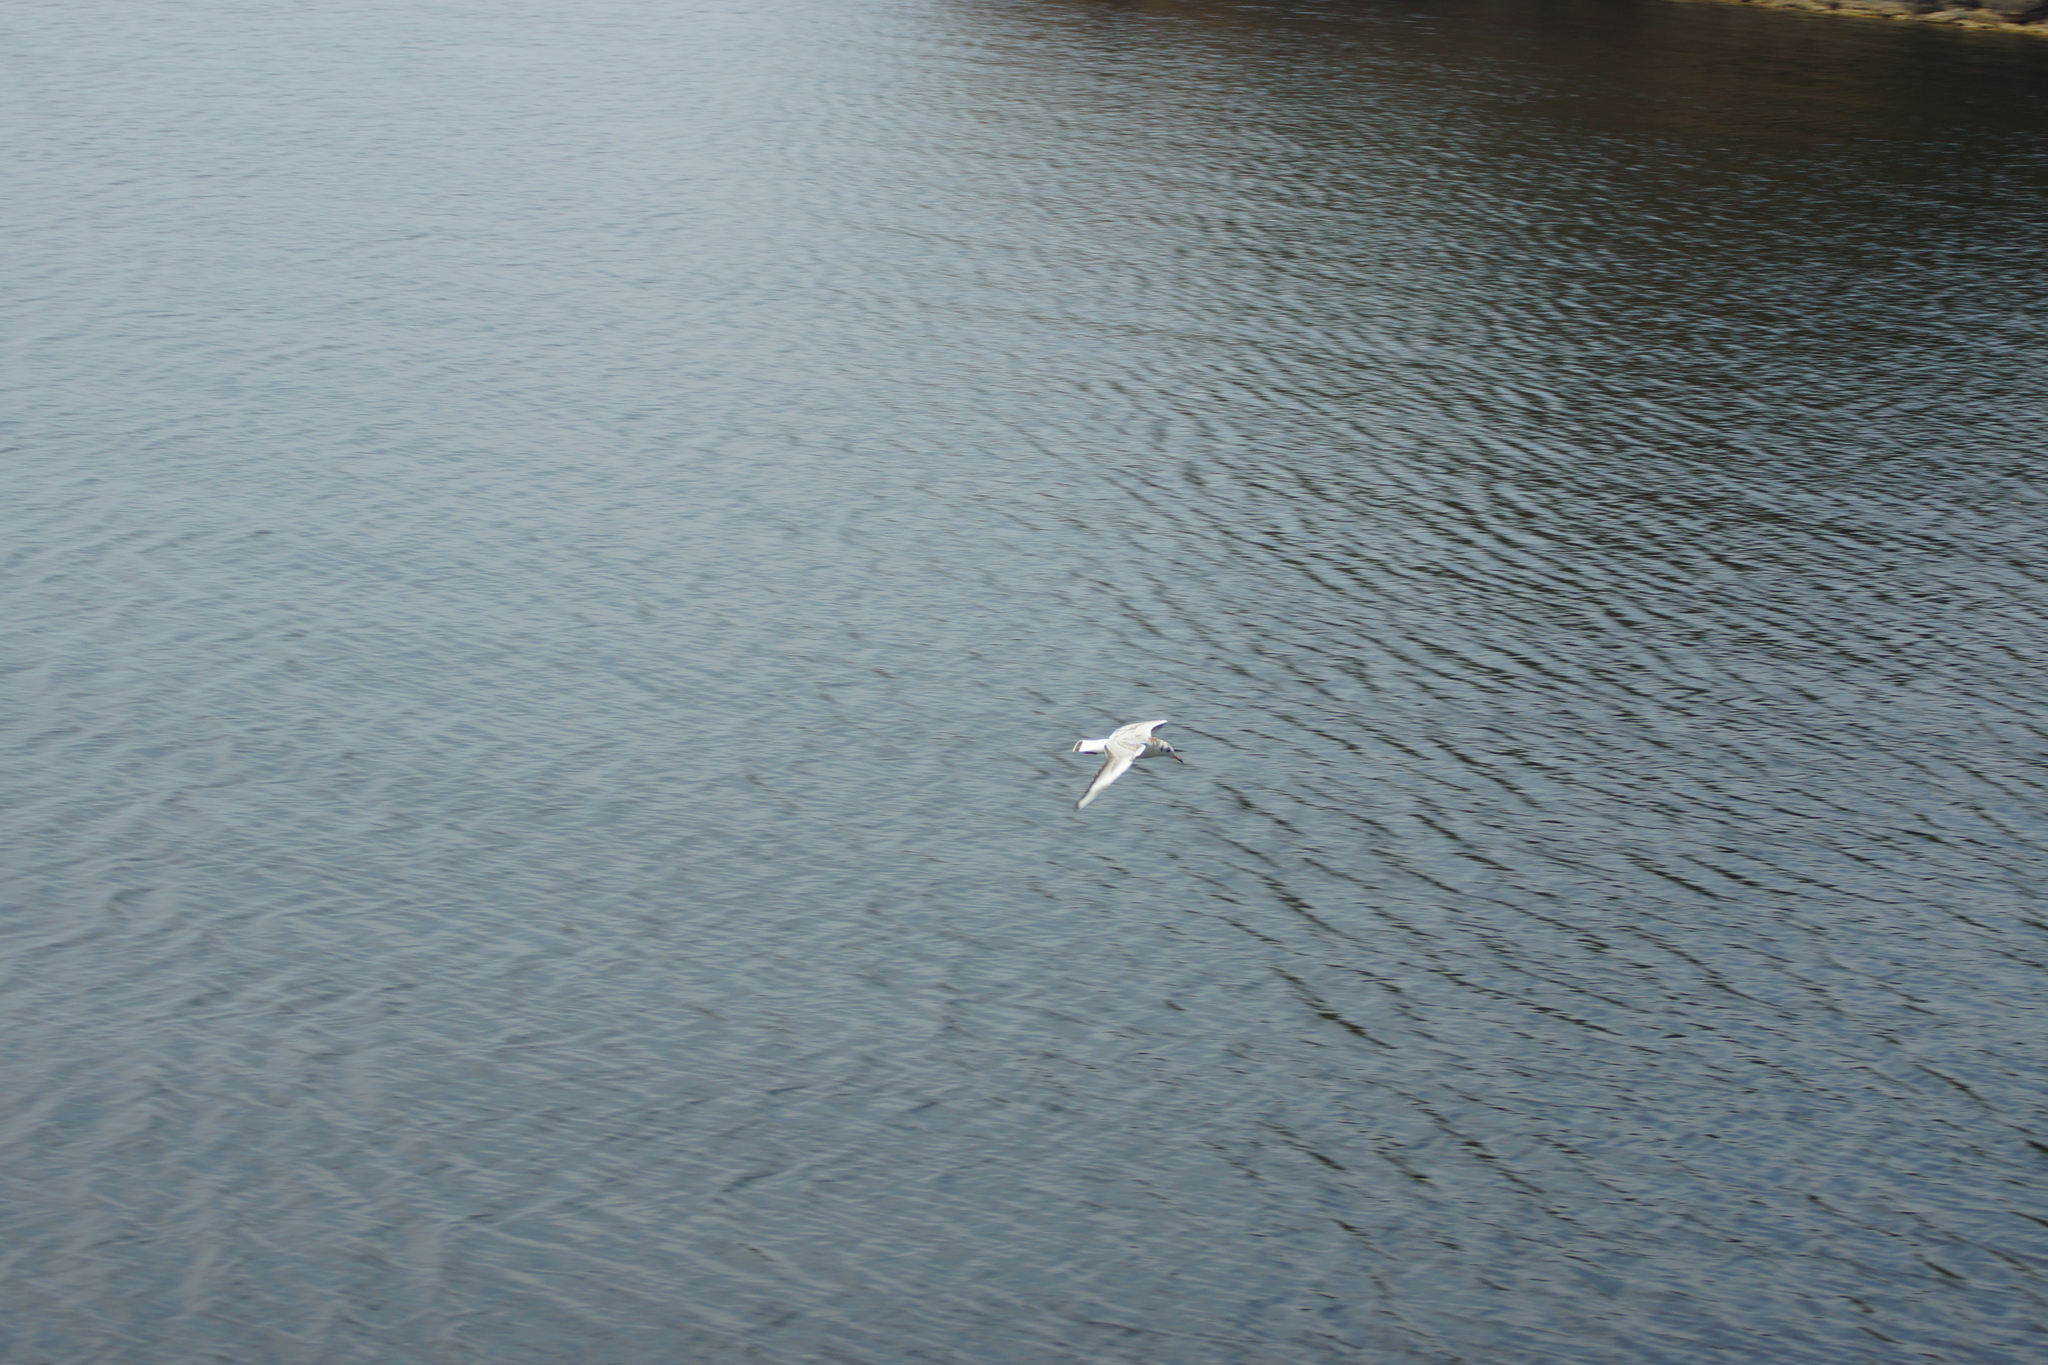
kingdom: Animalia
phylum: Chordata
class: Aves
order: Charadriiformes
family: Laridae
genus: Chroicocephalus
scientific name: Chroicocephalus ridibundus
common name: Black-headed gull
